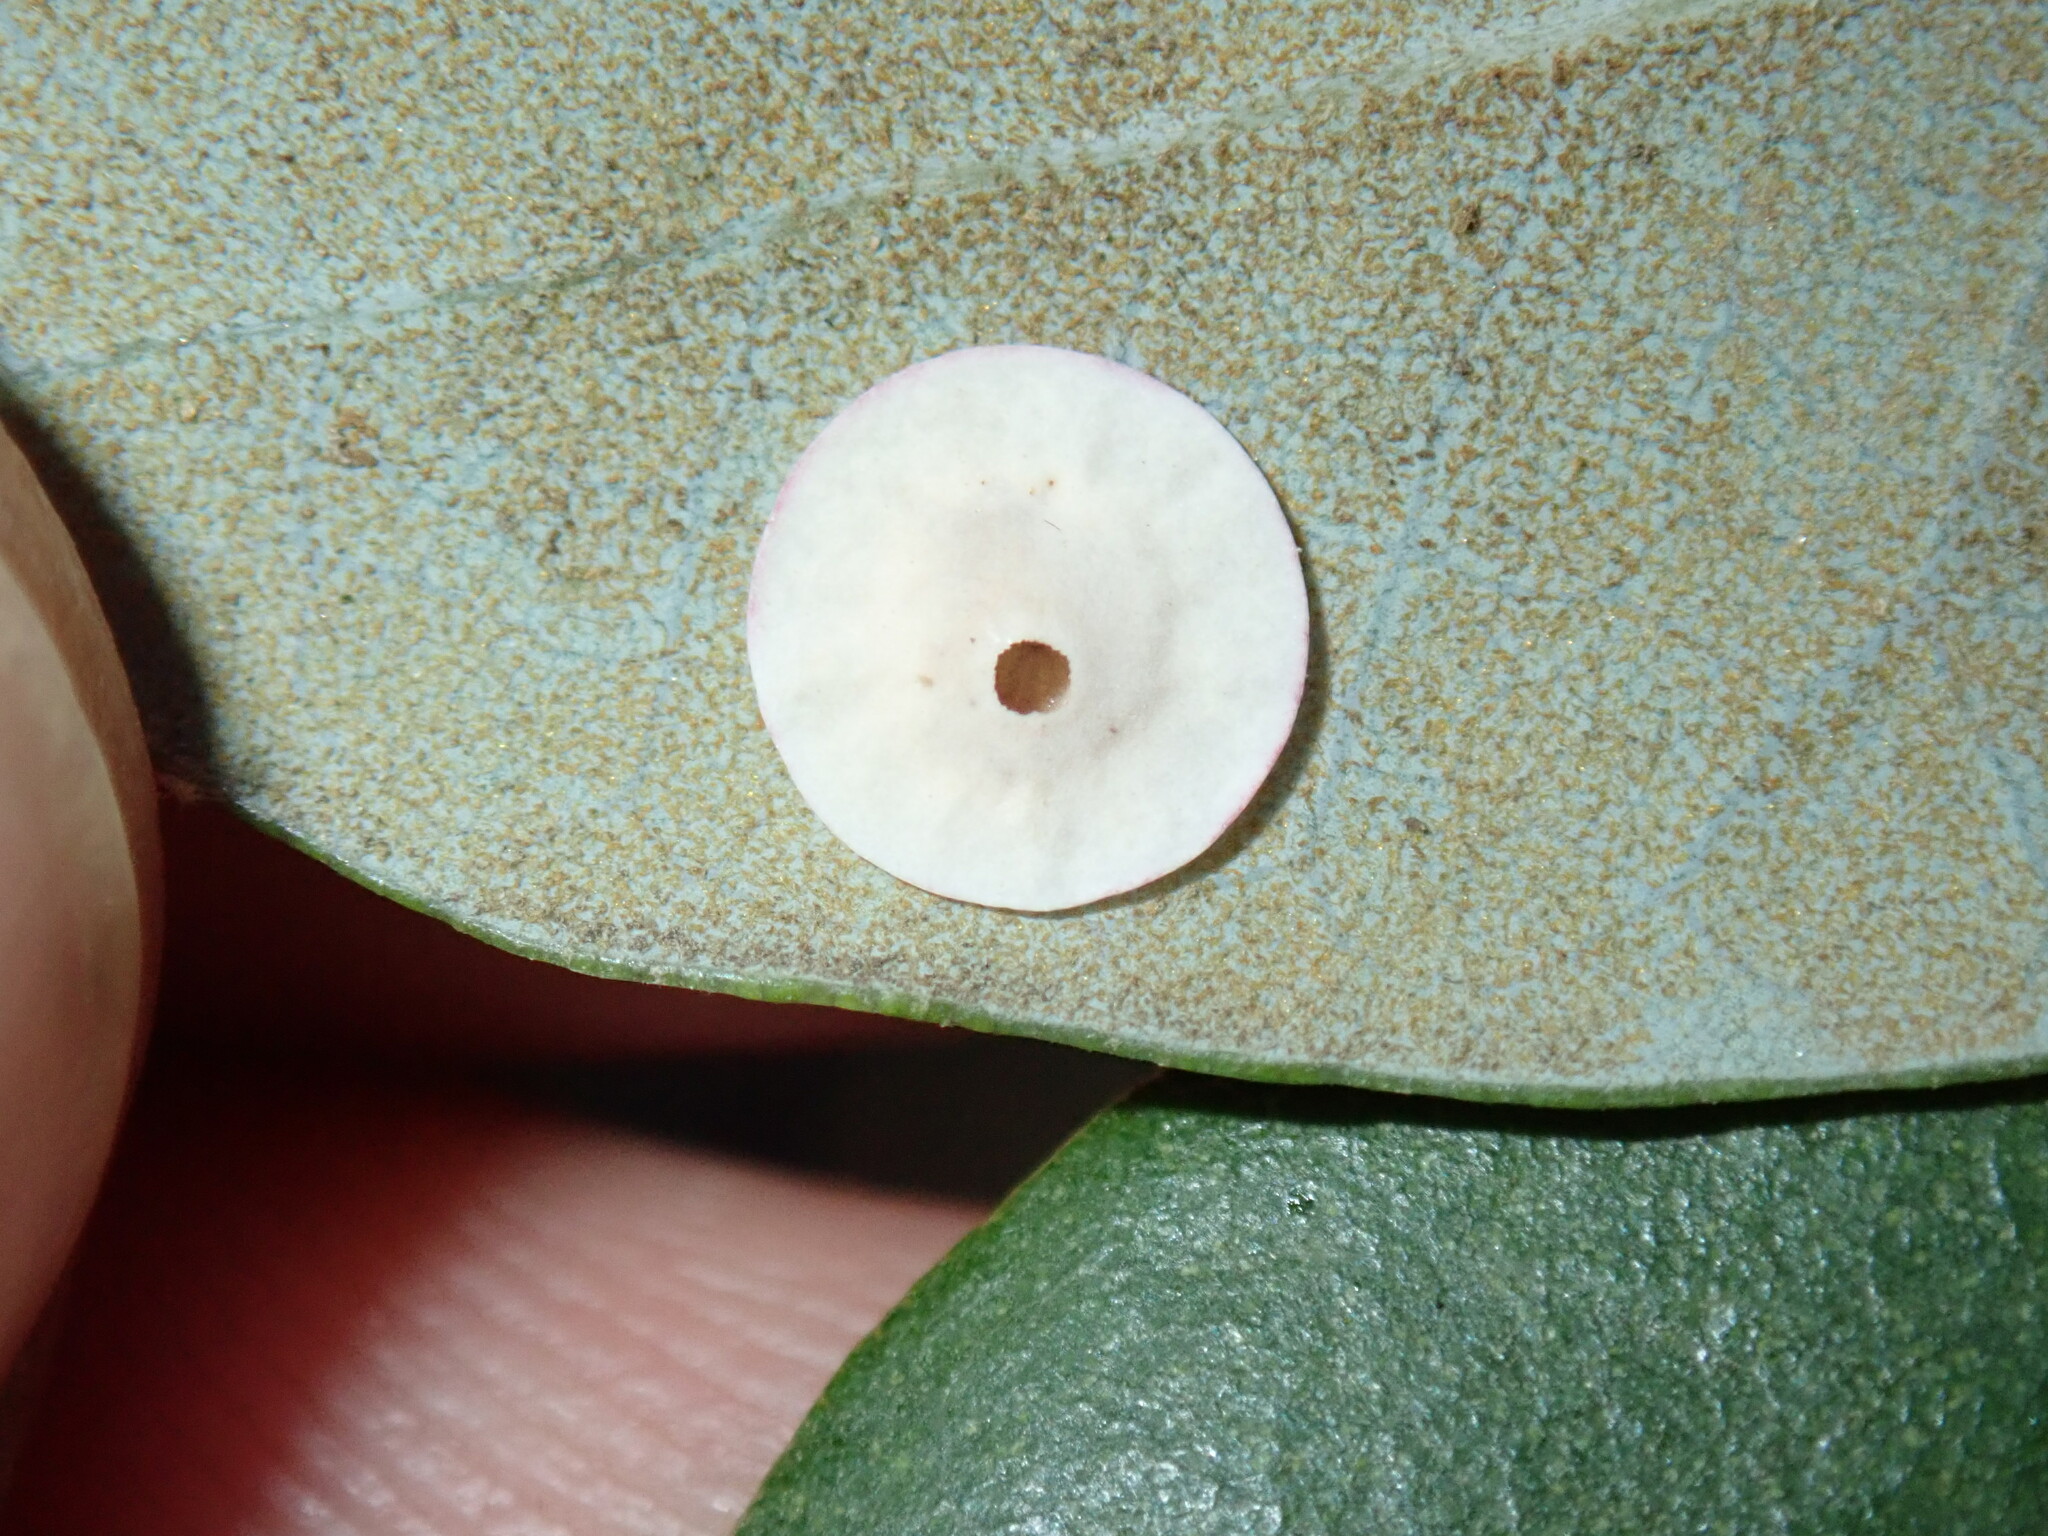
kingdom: Animalia
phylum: Arthropoda
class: Insecta
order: Hymenoptera
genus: Paracraspis
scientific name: Paracraspis
